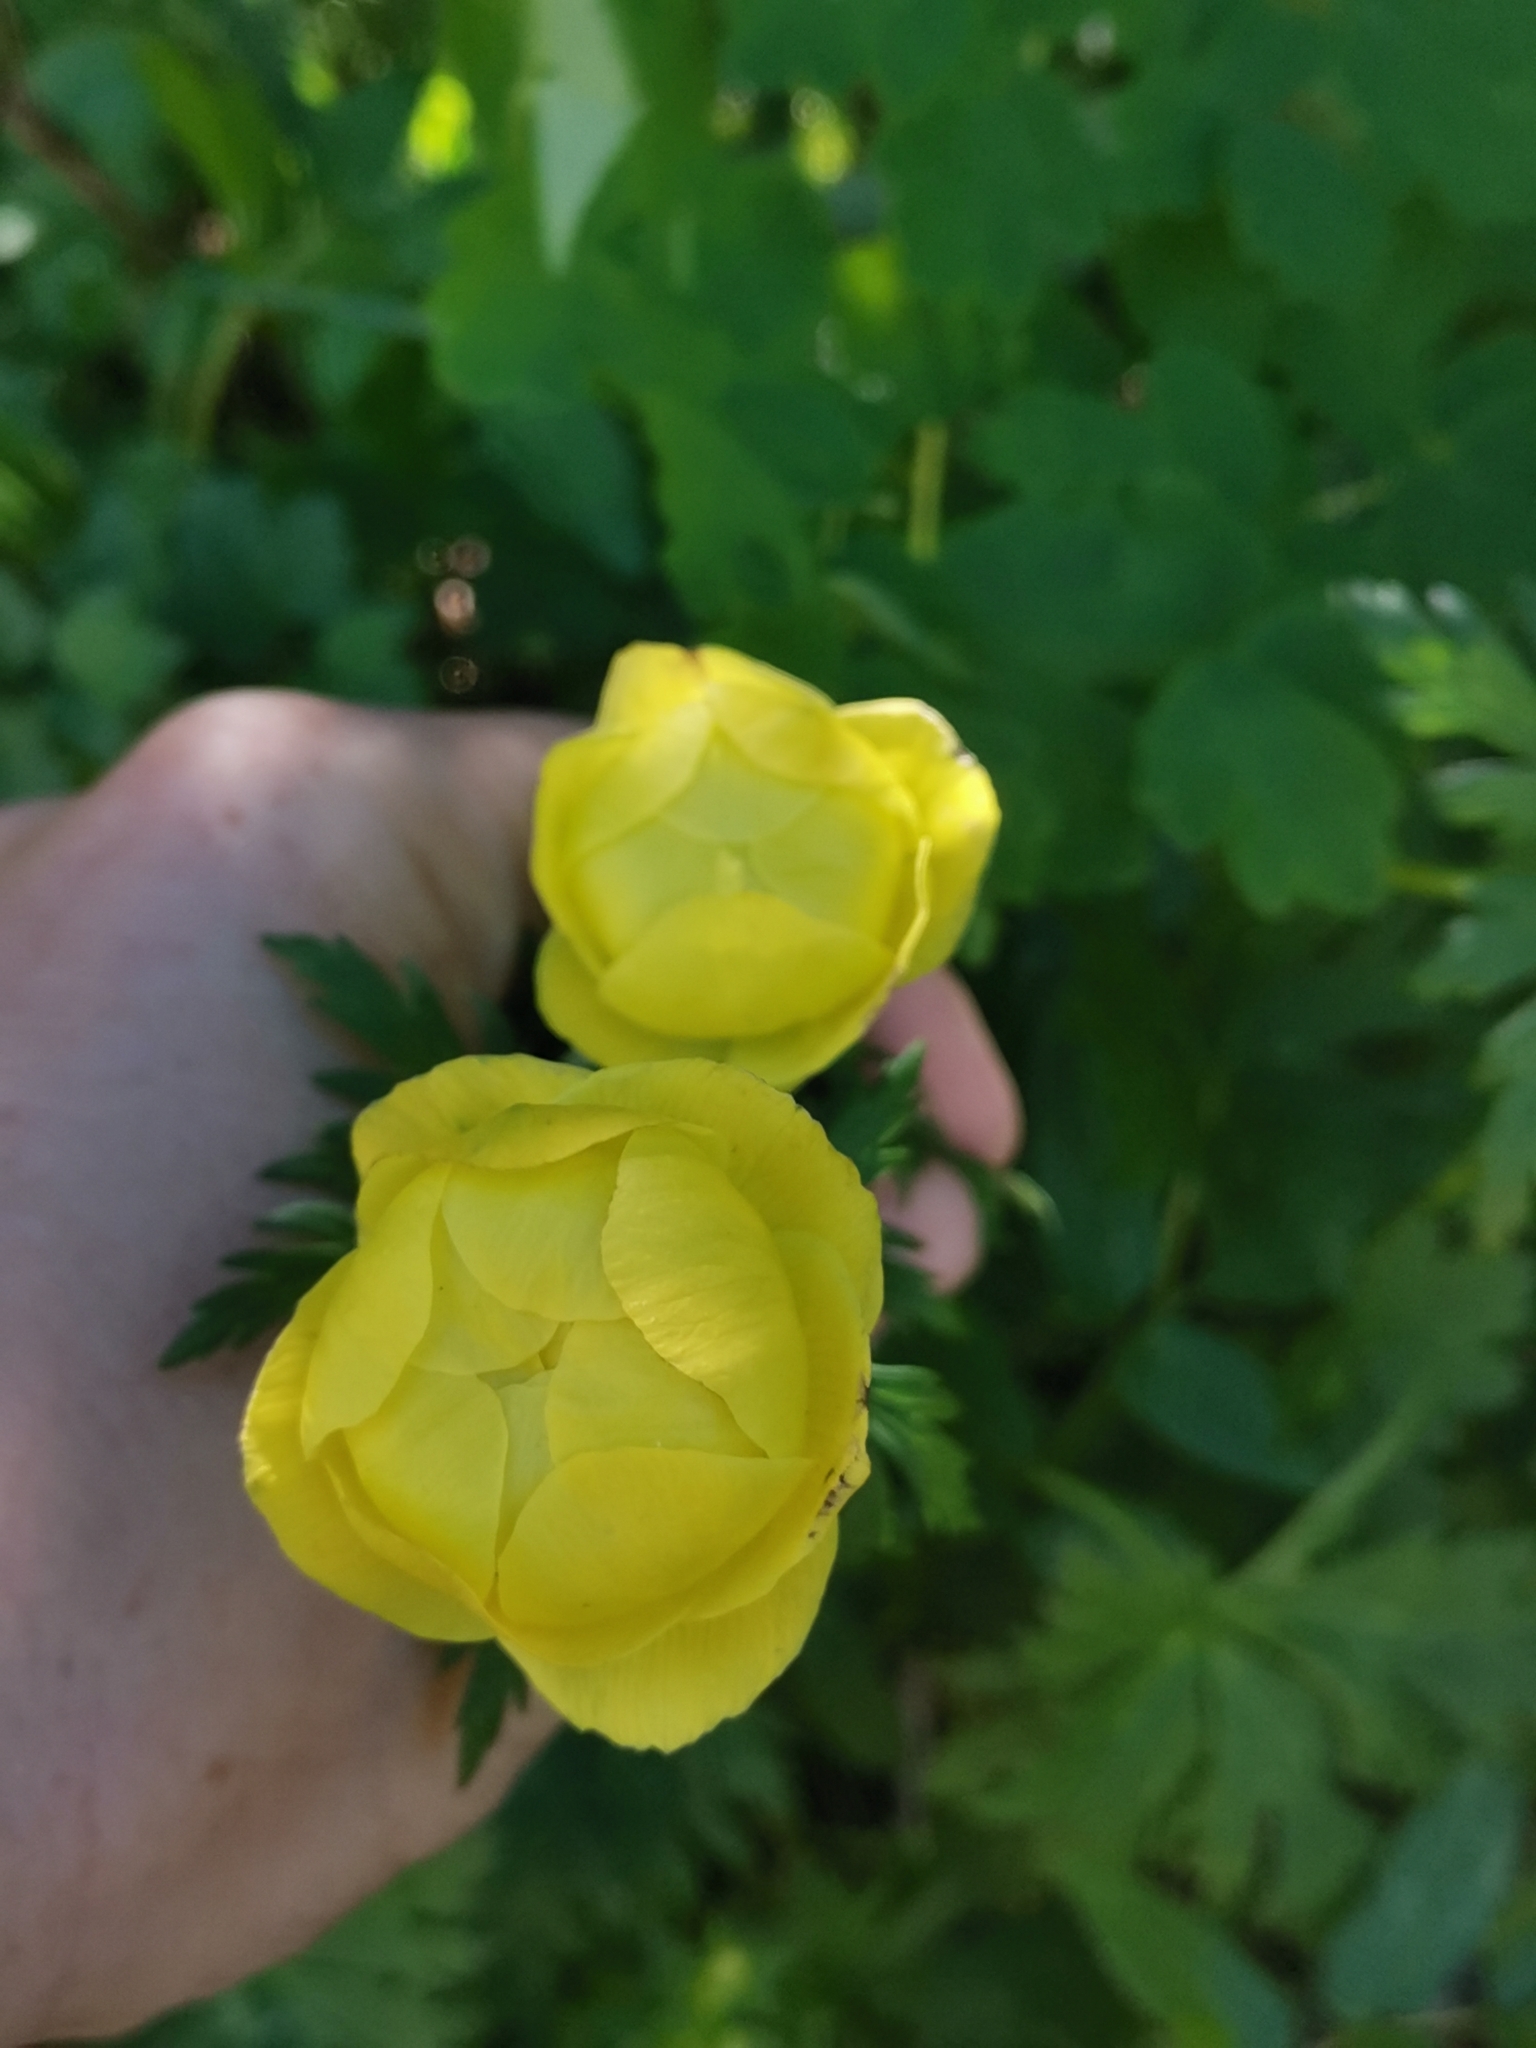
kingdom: Plantae
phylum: Tracheophyta
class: Magnoliopsida
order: Ranunculales
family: Ranunculaceae
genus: Trollius
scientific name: Trollius europaeus
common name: European globeflower
